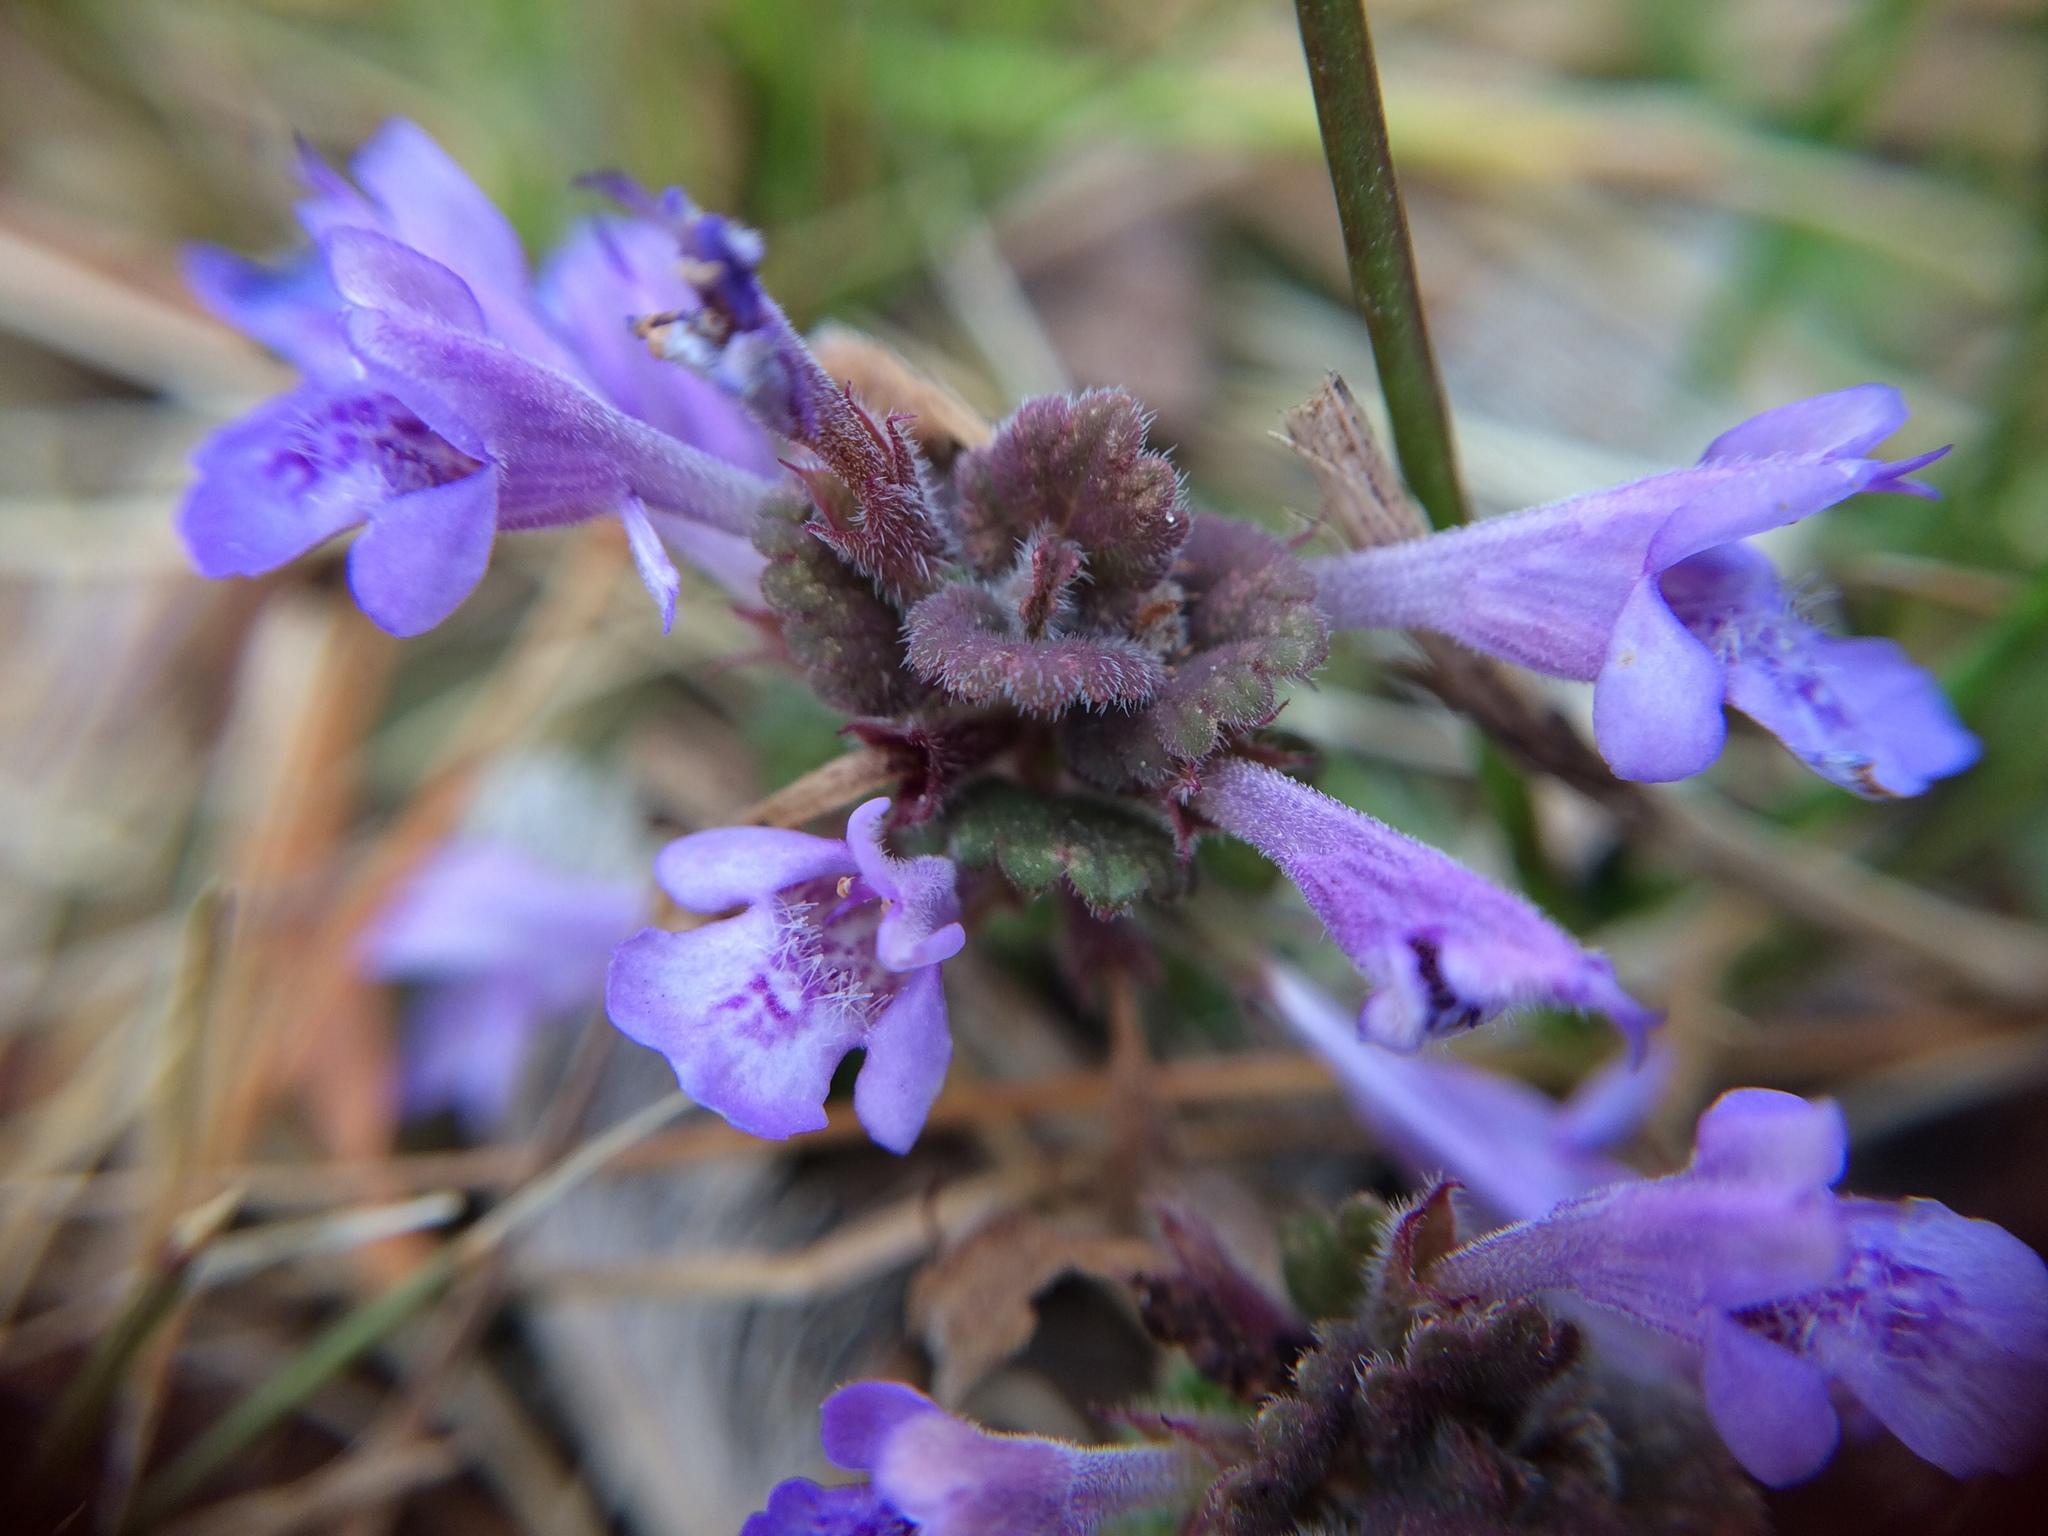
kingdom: Plantae
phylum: Tracheophyta
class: Magnoliopsida
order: Lamiales
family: Lamiaceae
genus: Glechoma
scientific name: Glechoma hederacea
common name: Ground ivy
